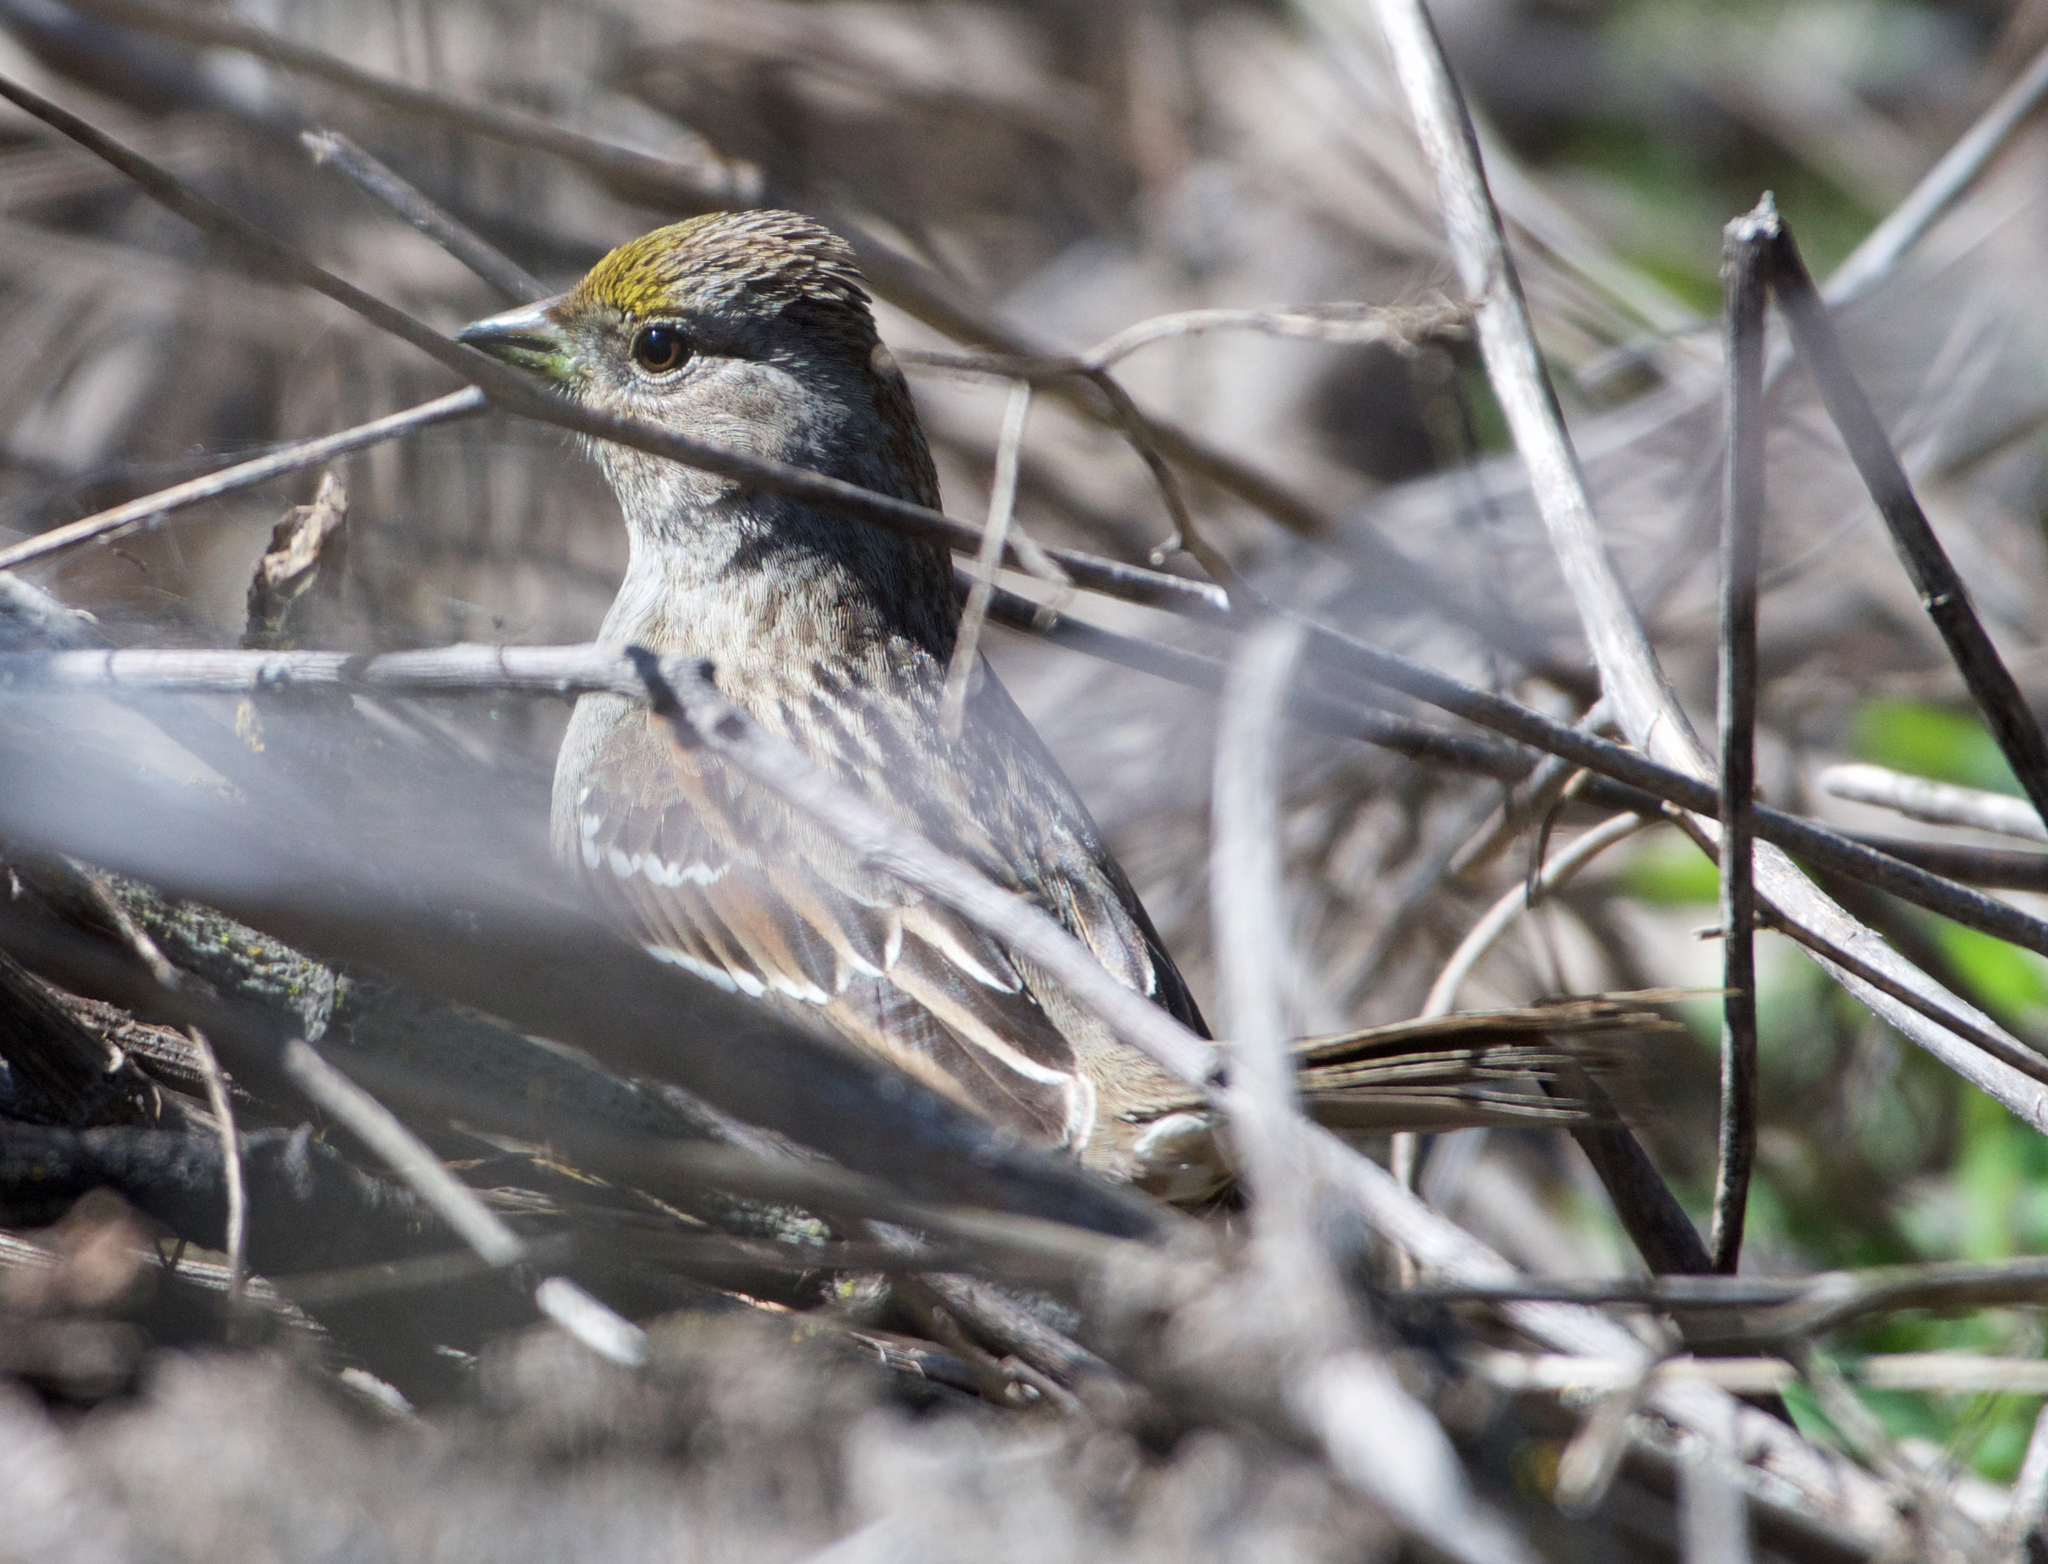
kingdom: Animalia
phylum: Chordata
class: Aves
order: Passeriformes
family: Passerellidae
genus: Zonotrichia
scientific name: Zonotrichia atricapilla
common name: Golden-crowned sparrow
